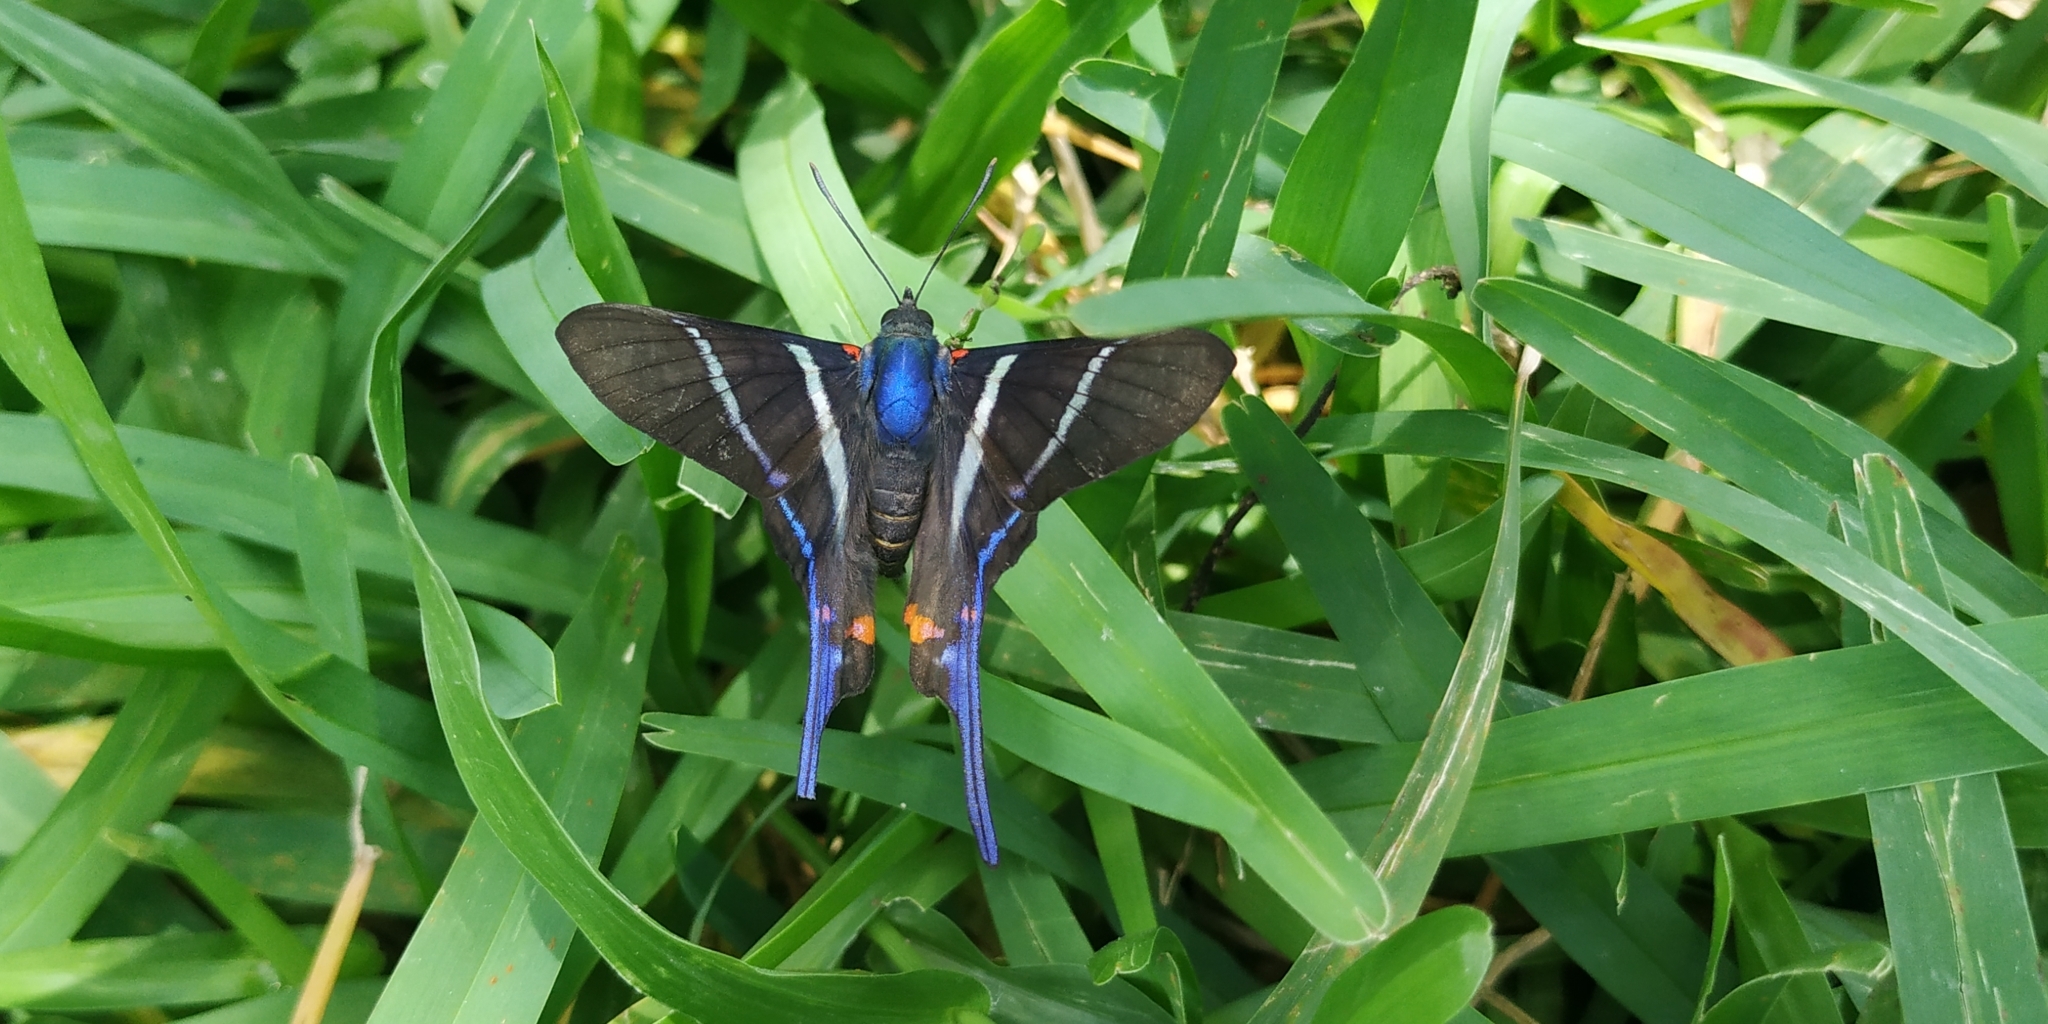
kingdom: Animalia
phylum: Arthropoda
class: Insecta
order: Lepidoptera
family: Riodinidae
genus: Rhetus
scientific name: Rhetus arcius
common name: Long-tailed metalmark
